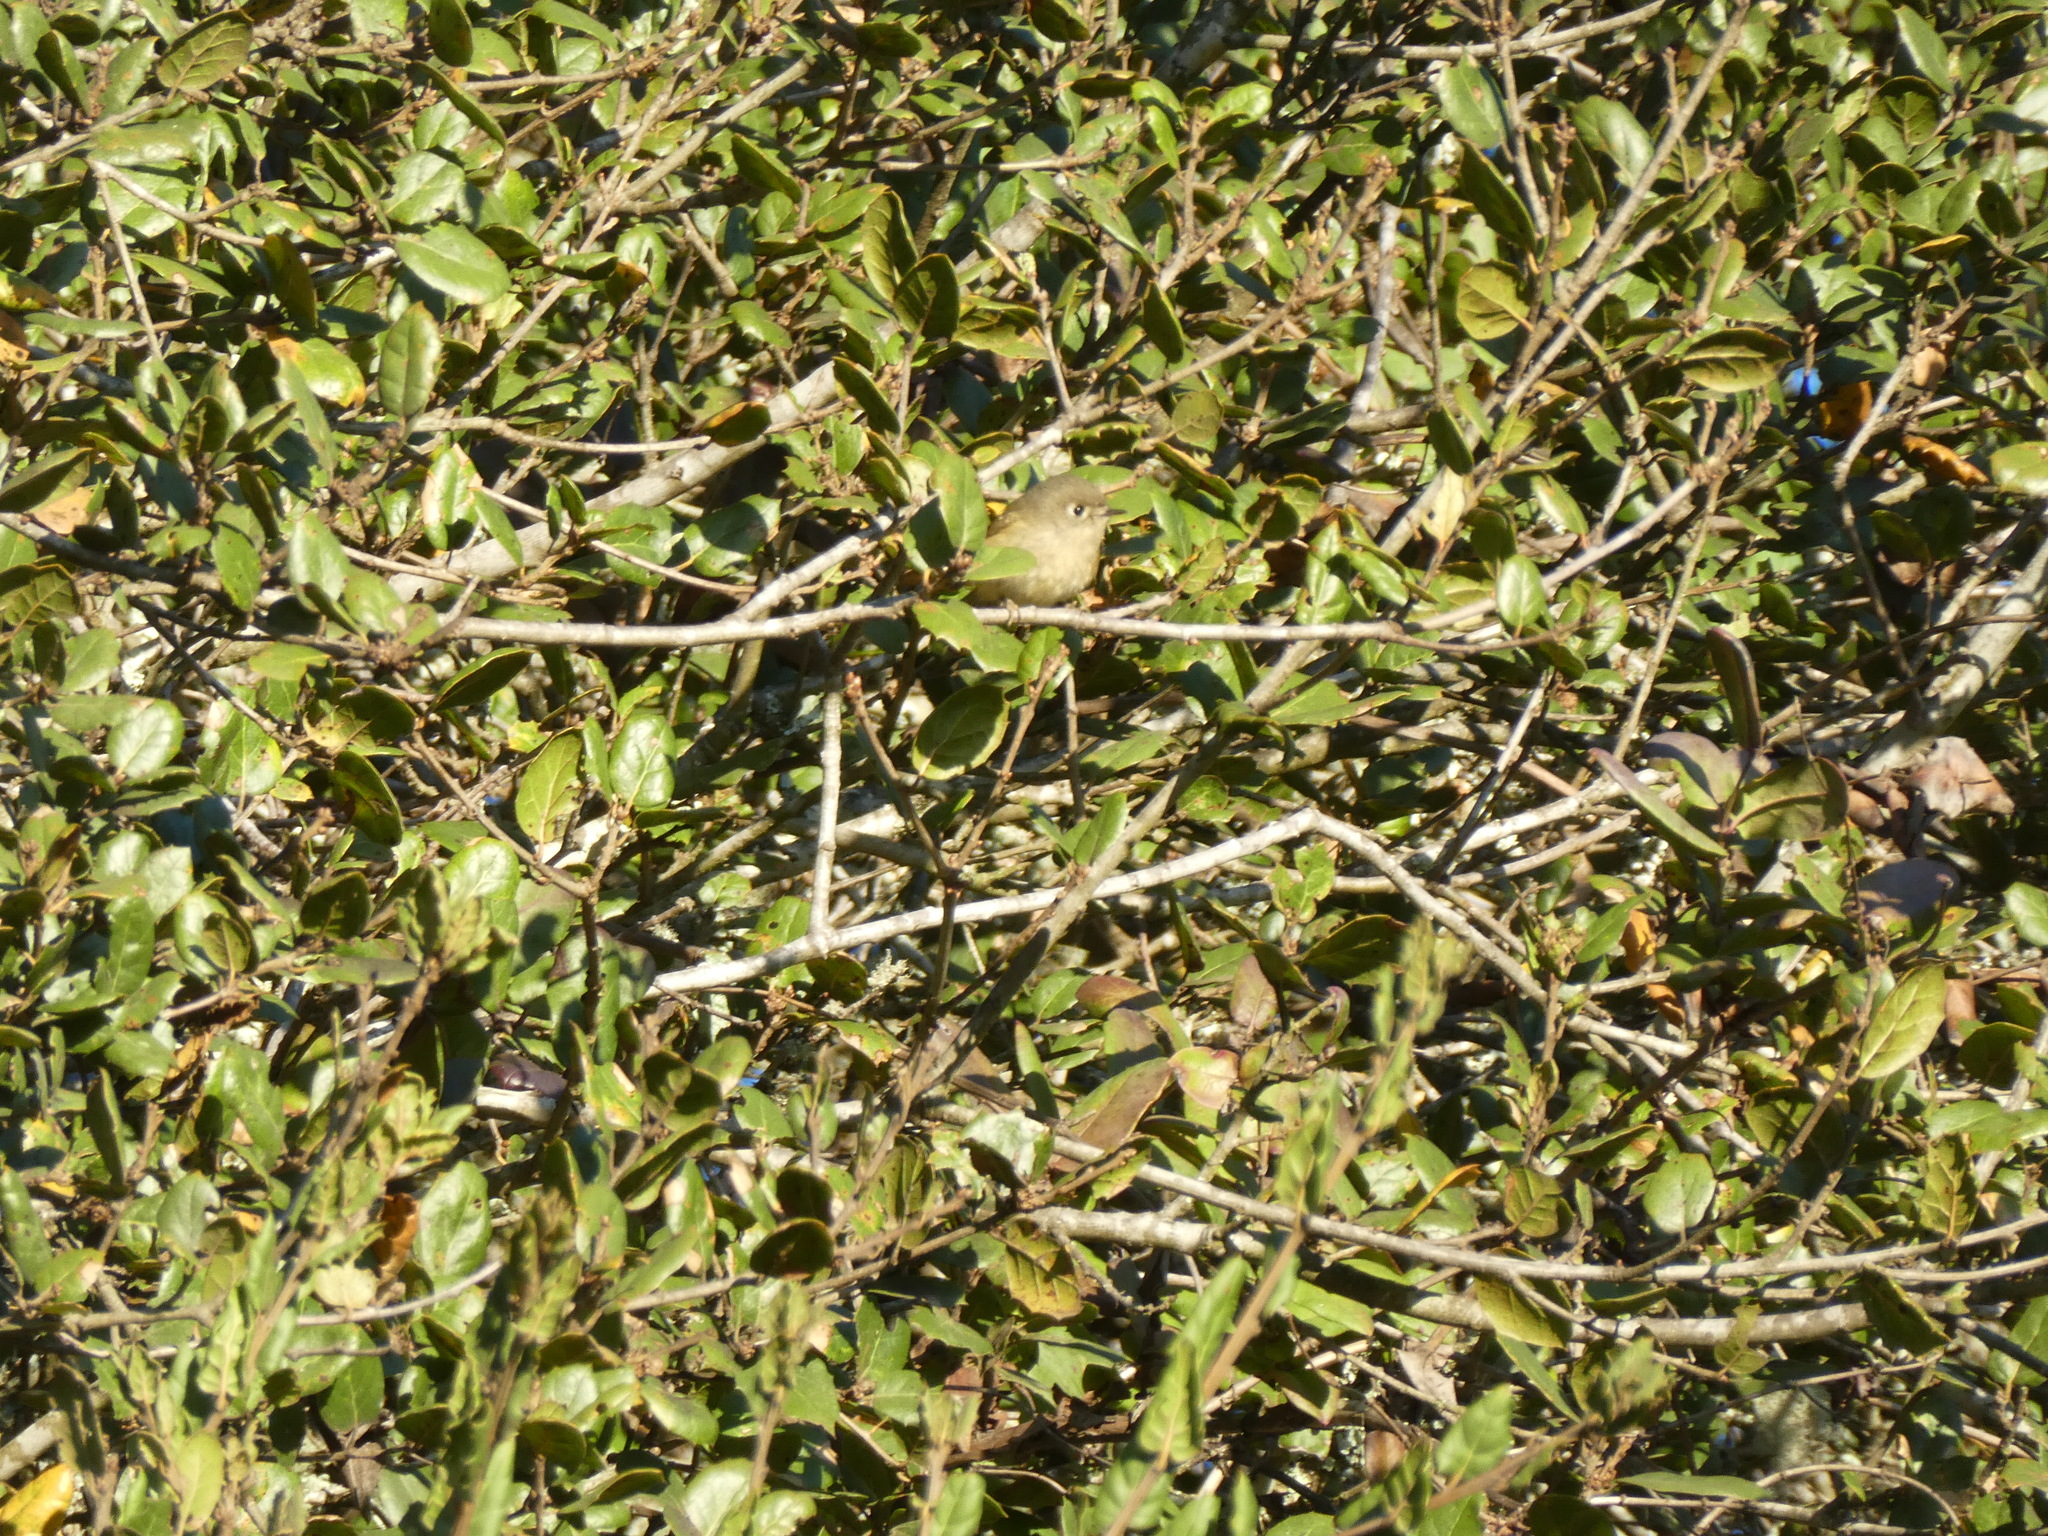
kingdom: Animalia
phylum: Chordata
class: Aves
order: Passeriformes
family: Regulidae
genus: Regulus
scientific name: Regulus calendula
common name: Ruby-crowned kinglet
